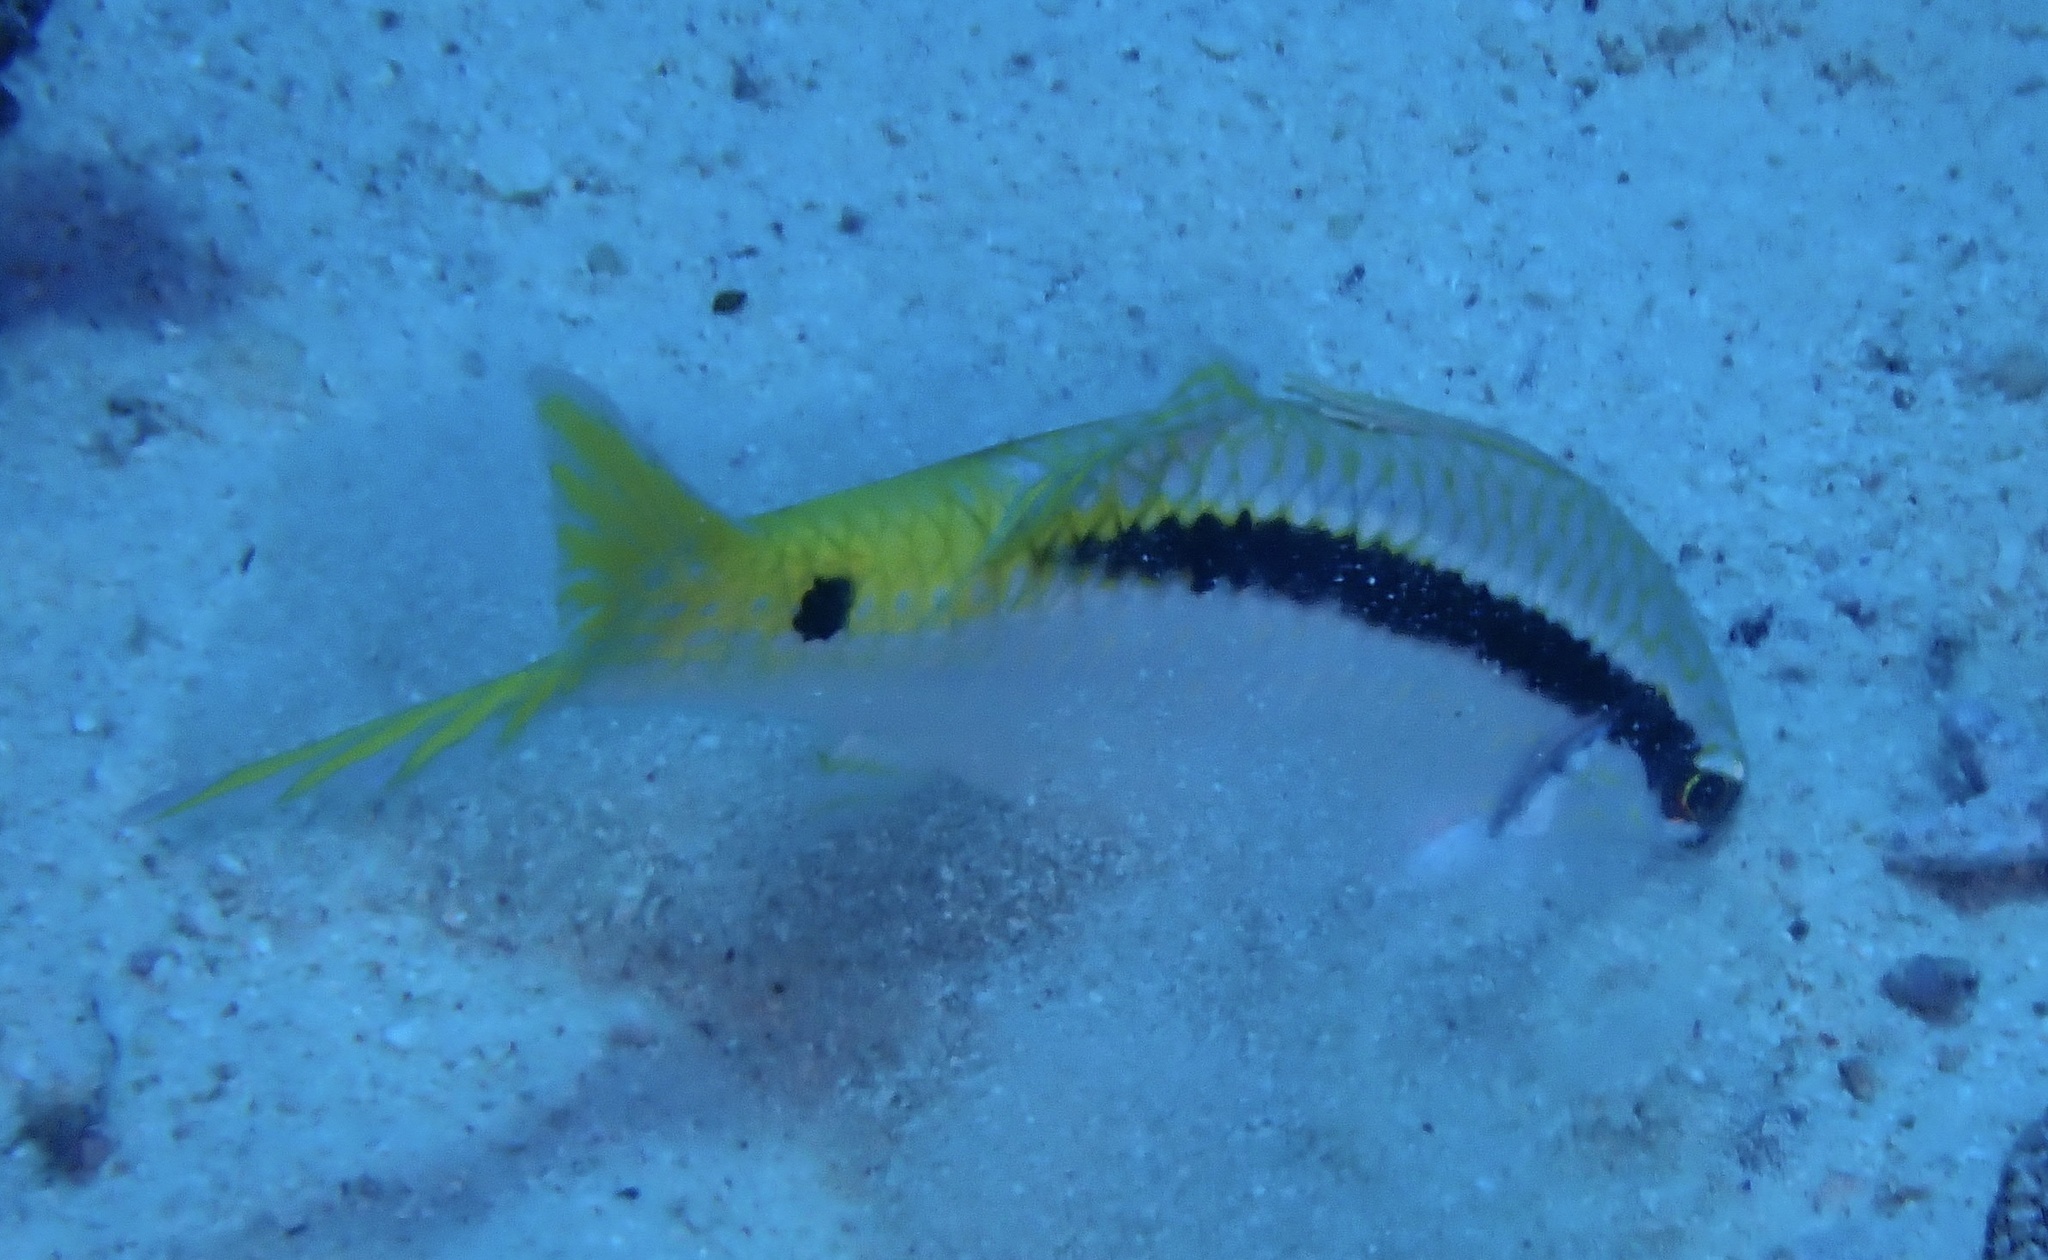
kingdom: Animalia
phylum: Chordata
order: Perciformes
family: Mullidae
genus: Parupeneus
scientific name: Parupeneus forsskali
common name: Red sea goatfish
